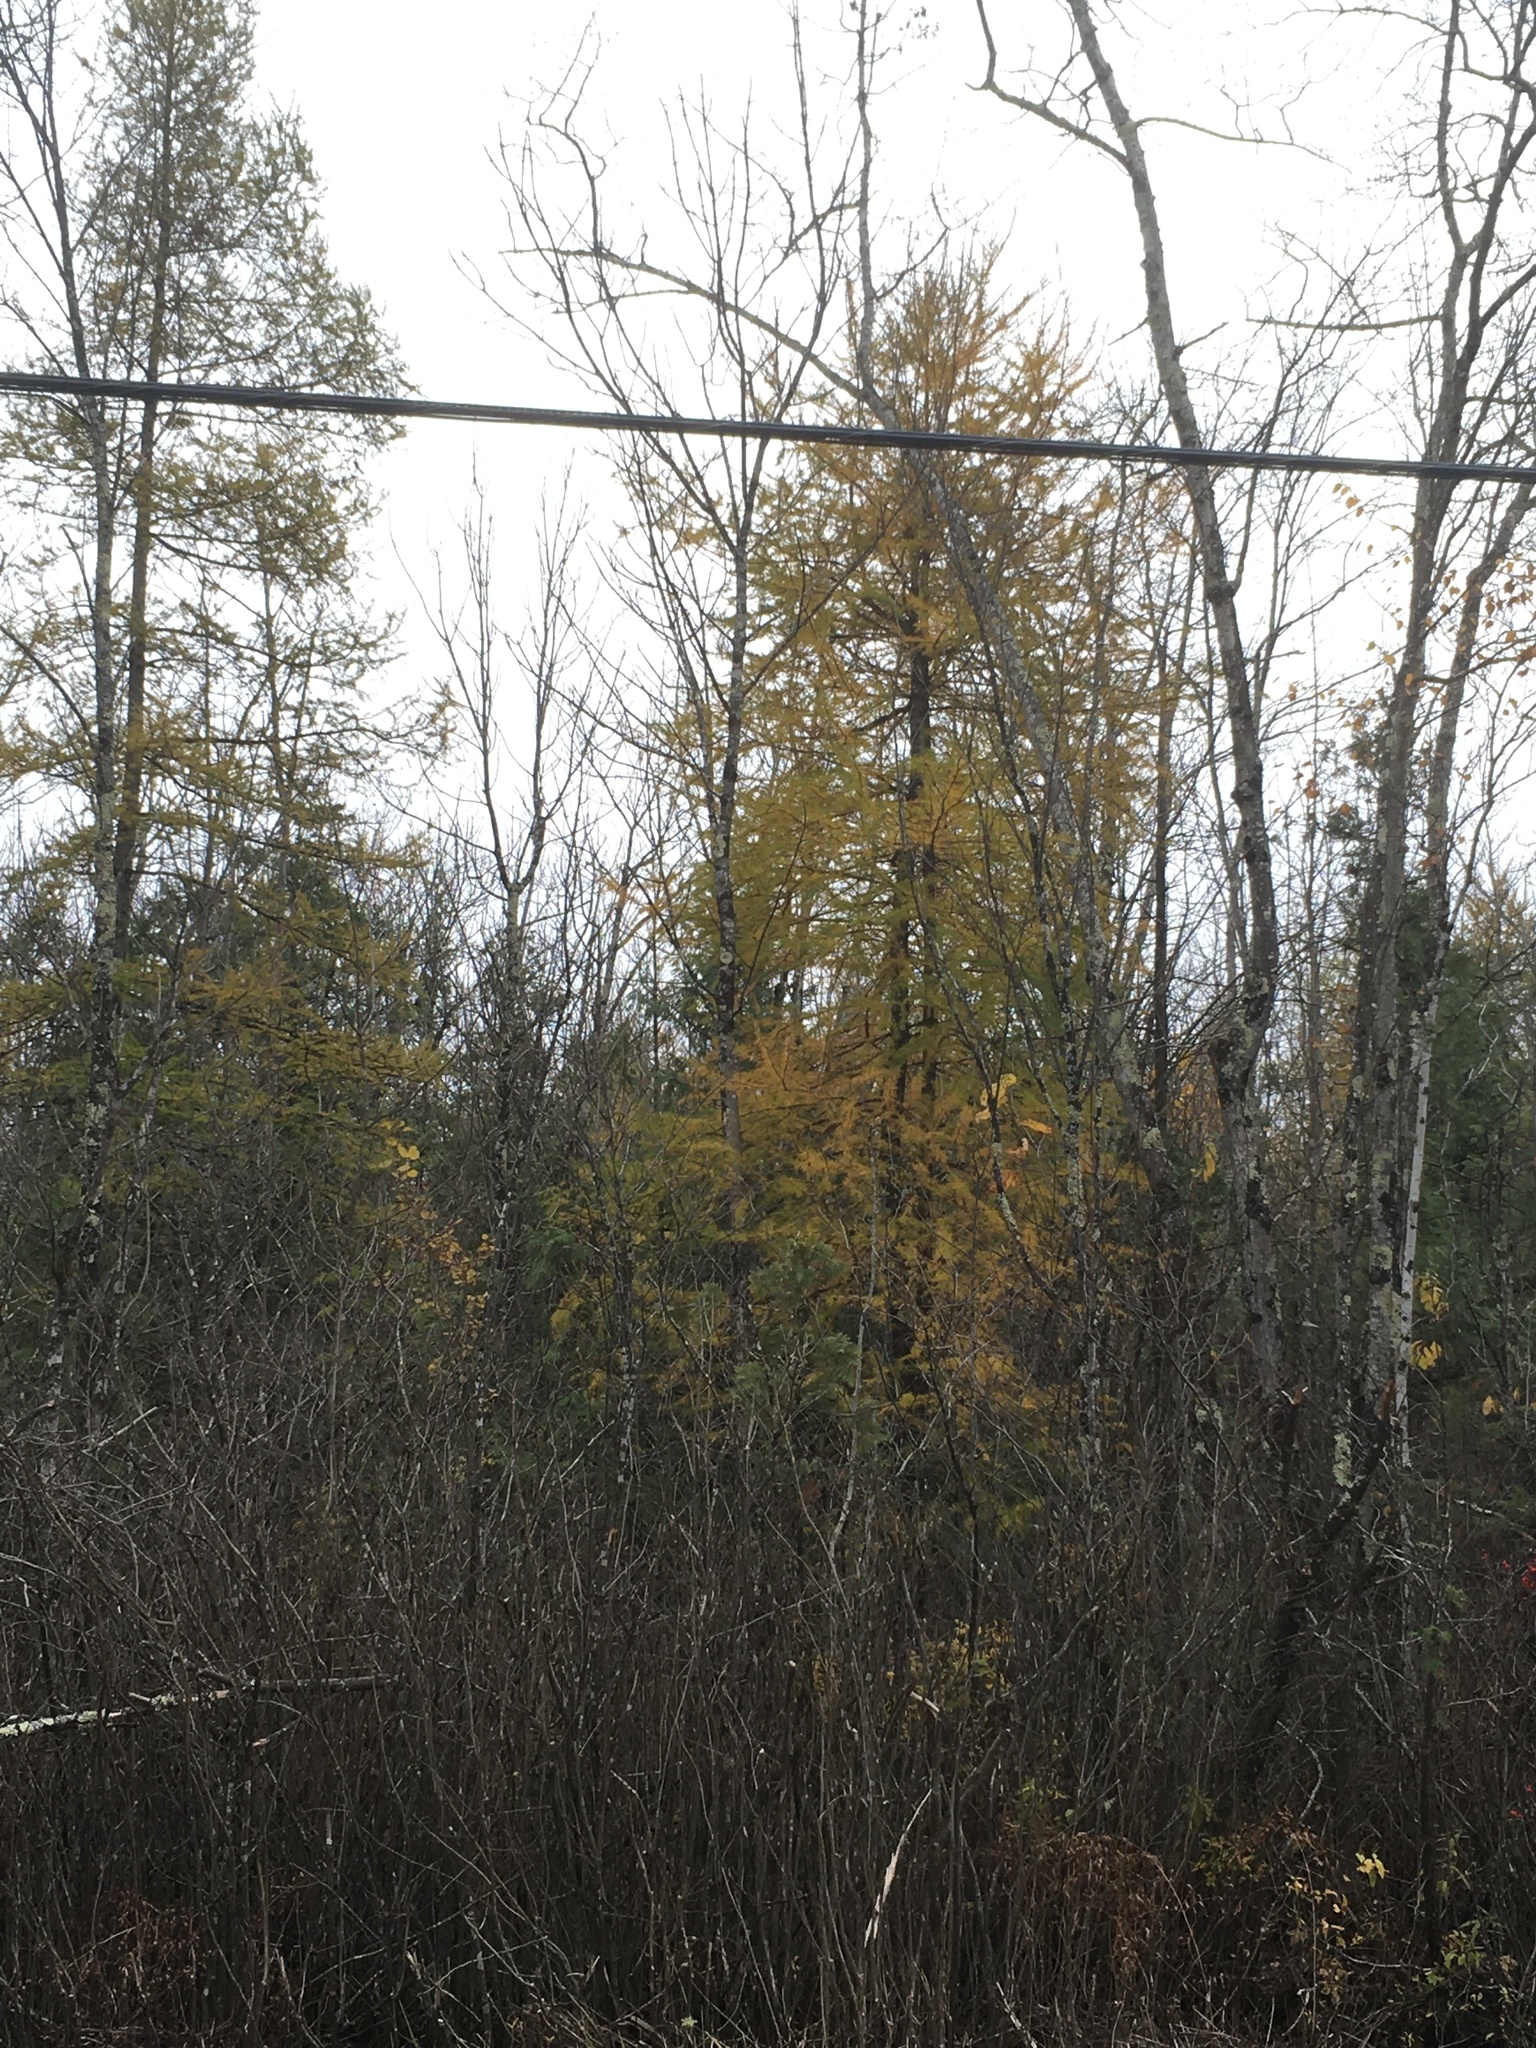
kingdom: Plantae
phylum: Tracheophyta
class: Pinopsida
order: Pinales
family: Pinaceae
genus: Larix
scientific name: Larix laricina
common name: American larch
